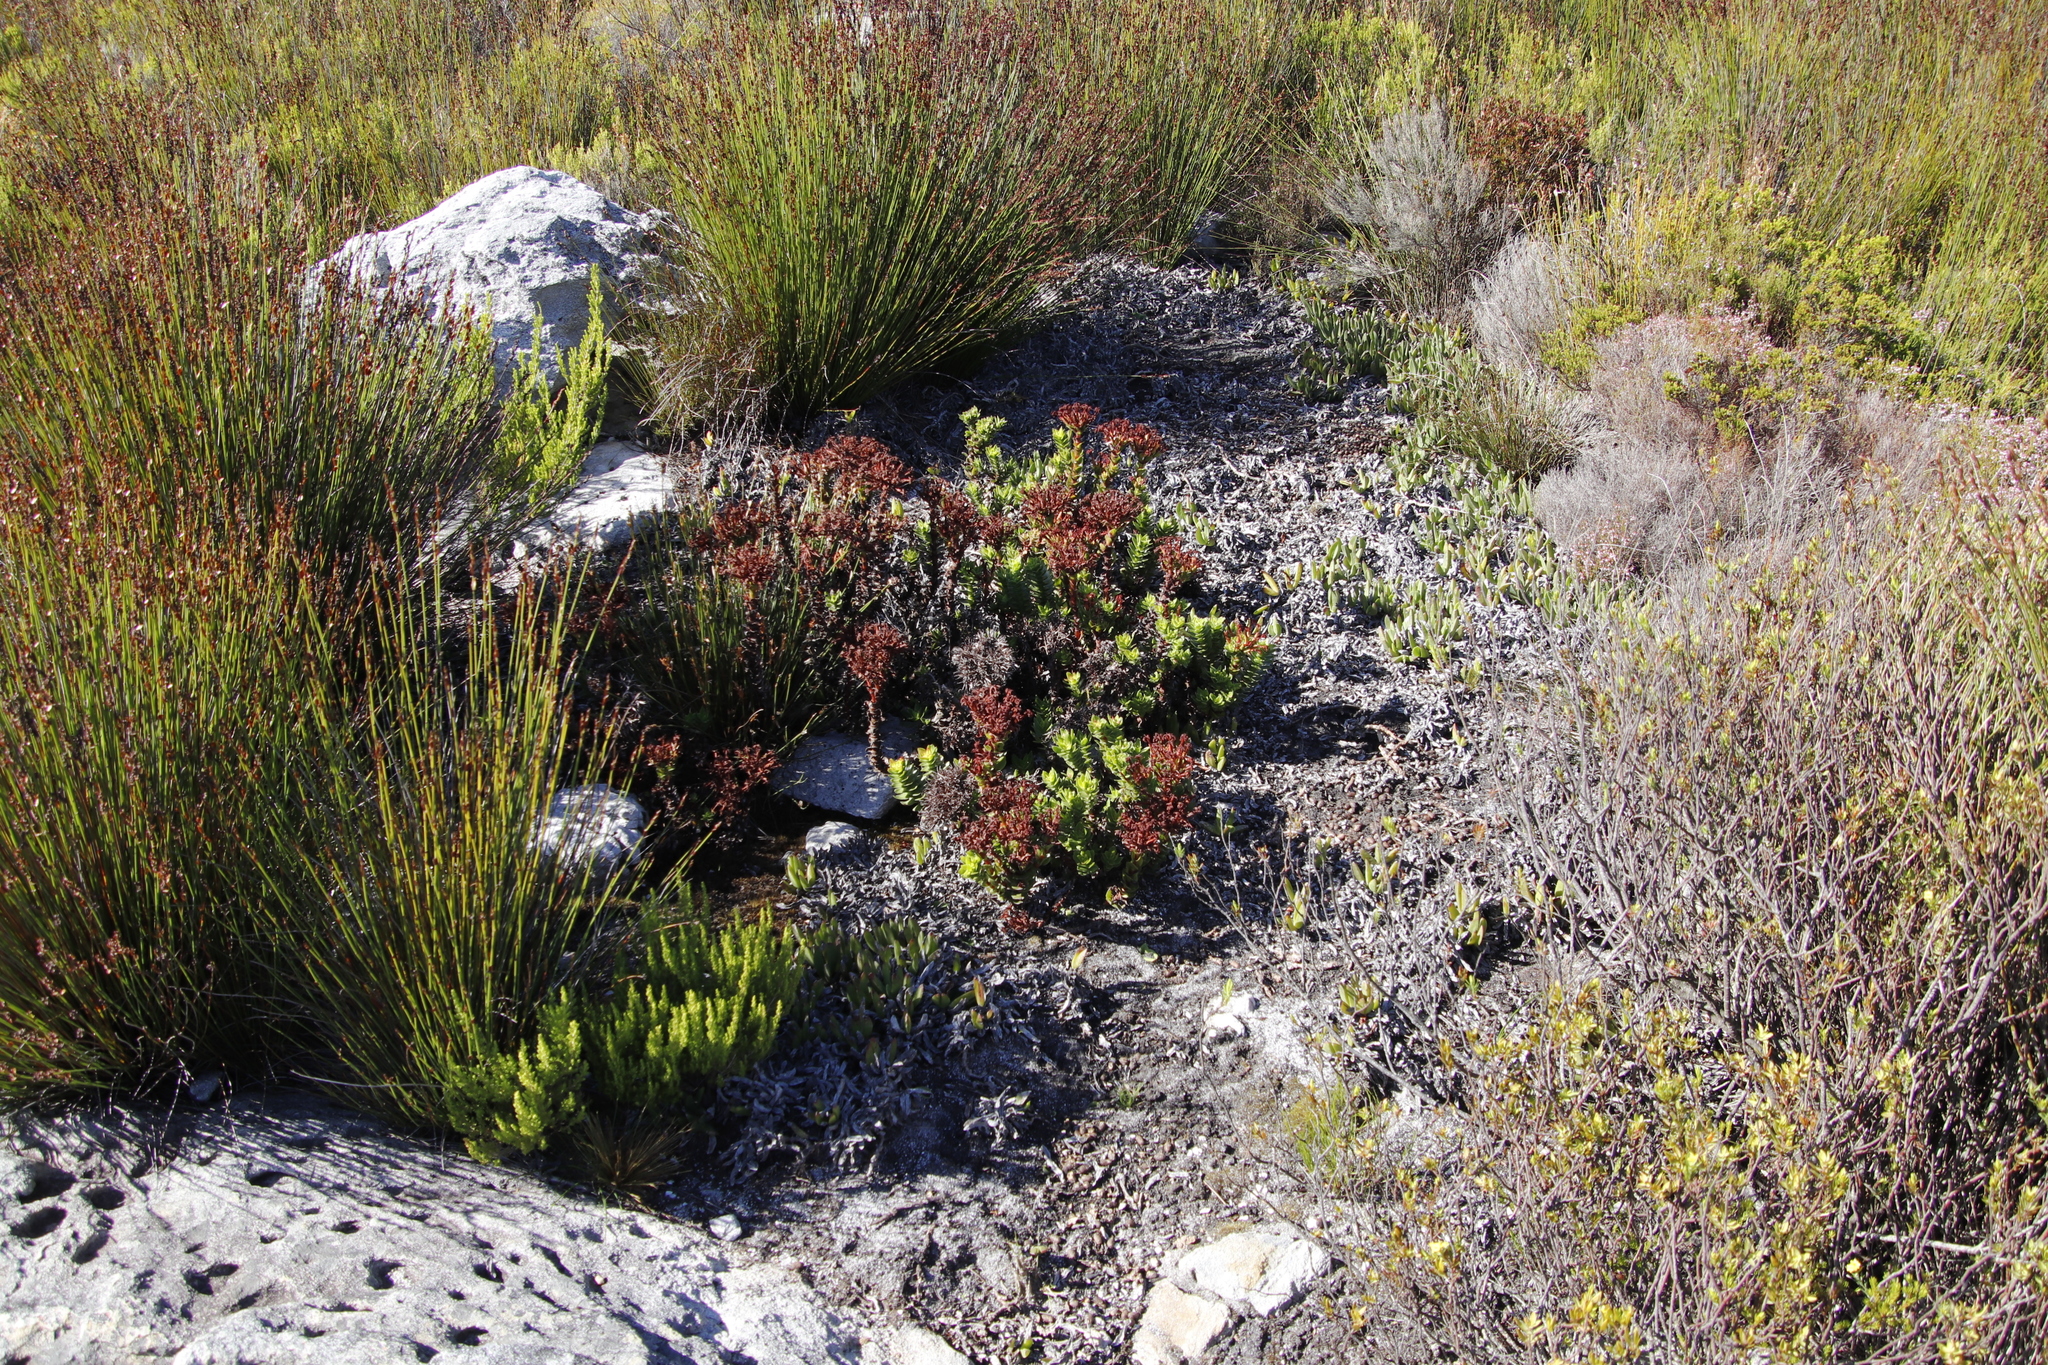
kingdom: Animalia
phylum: Chordata
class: Mammalia
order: Artiodactyla
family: Bovidae
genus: Oreotragus
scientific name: Oreotragus oreotragus
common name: Klipspringer
